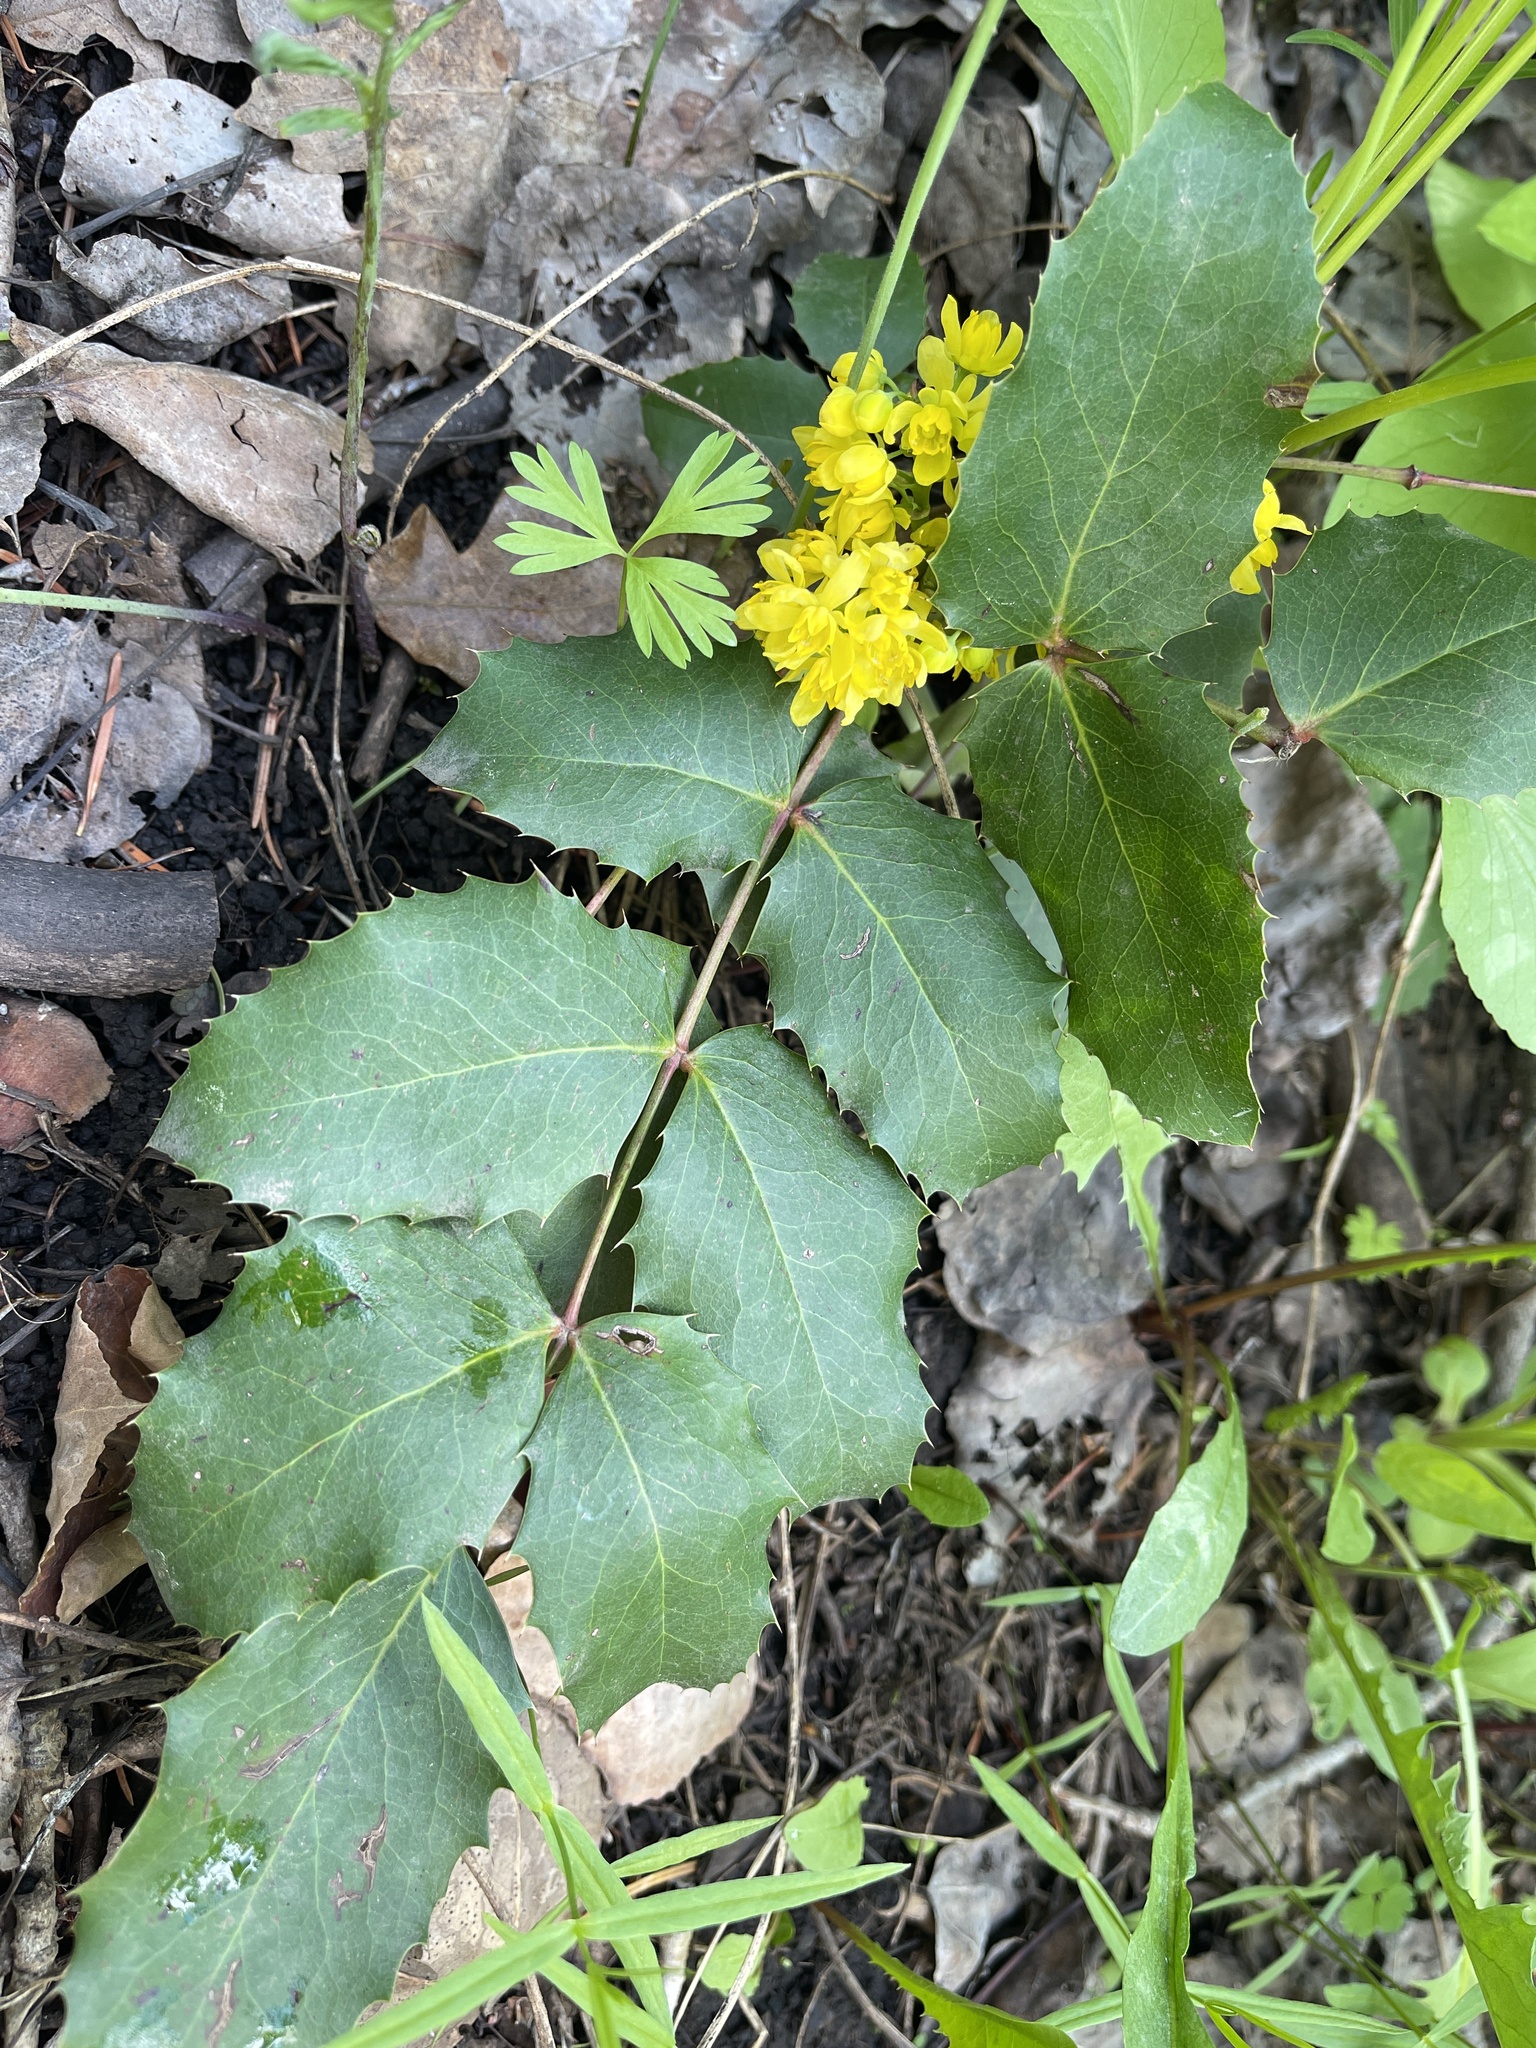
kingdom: Plantae
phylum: Tracheophyta
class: Magnoliopsida
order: Ranunculales
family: Berberidaceae
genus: Mahonia
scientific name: Mahonia repens
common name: Creeping oregon-grape
